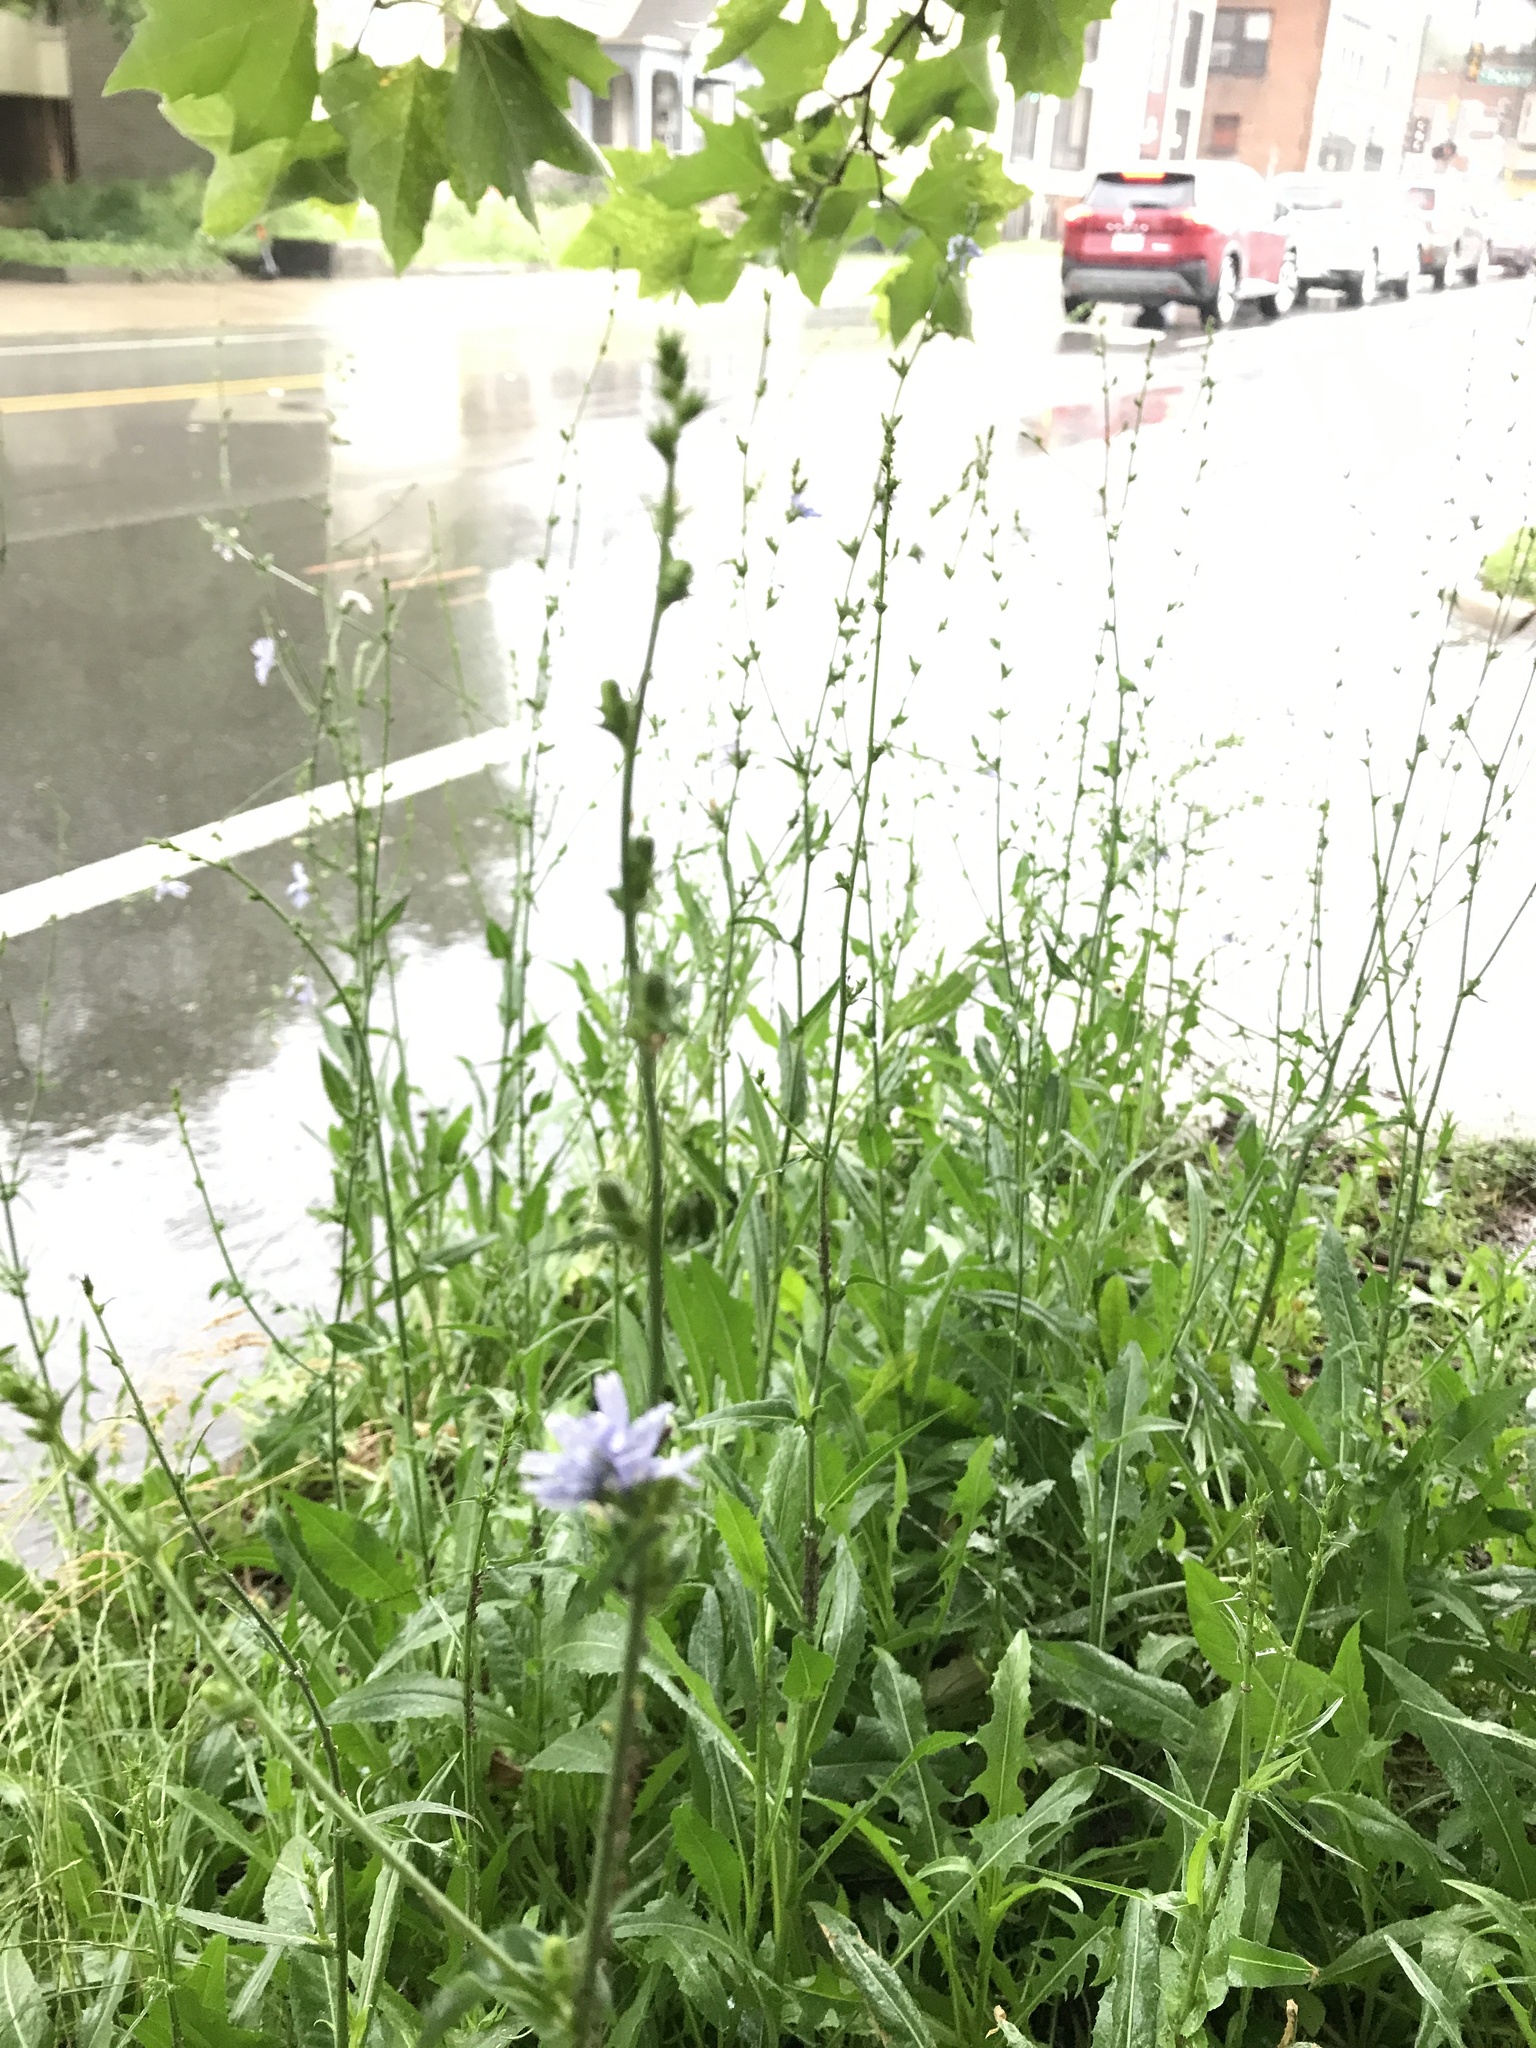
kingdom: Plantae
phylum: Tracheophyta
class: Magnoliopsida
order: Asterales
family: Asteraceae
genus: Cichorium
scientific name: Cichorium intybus
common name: Chicory
